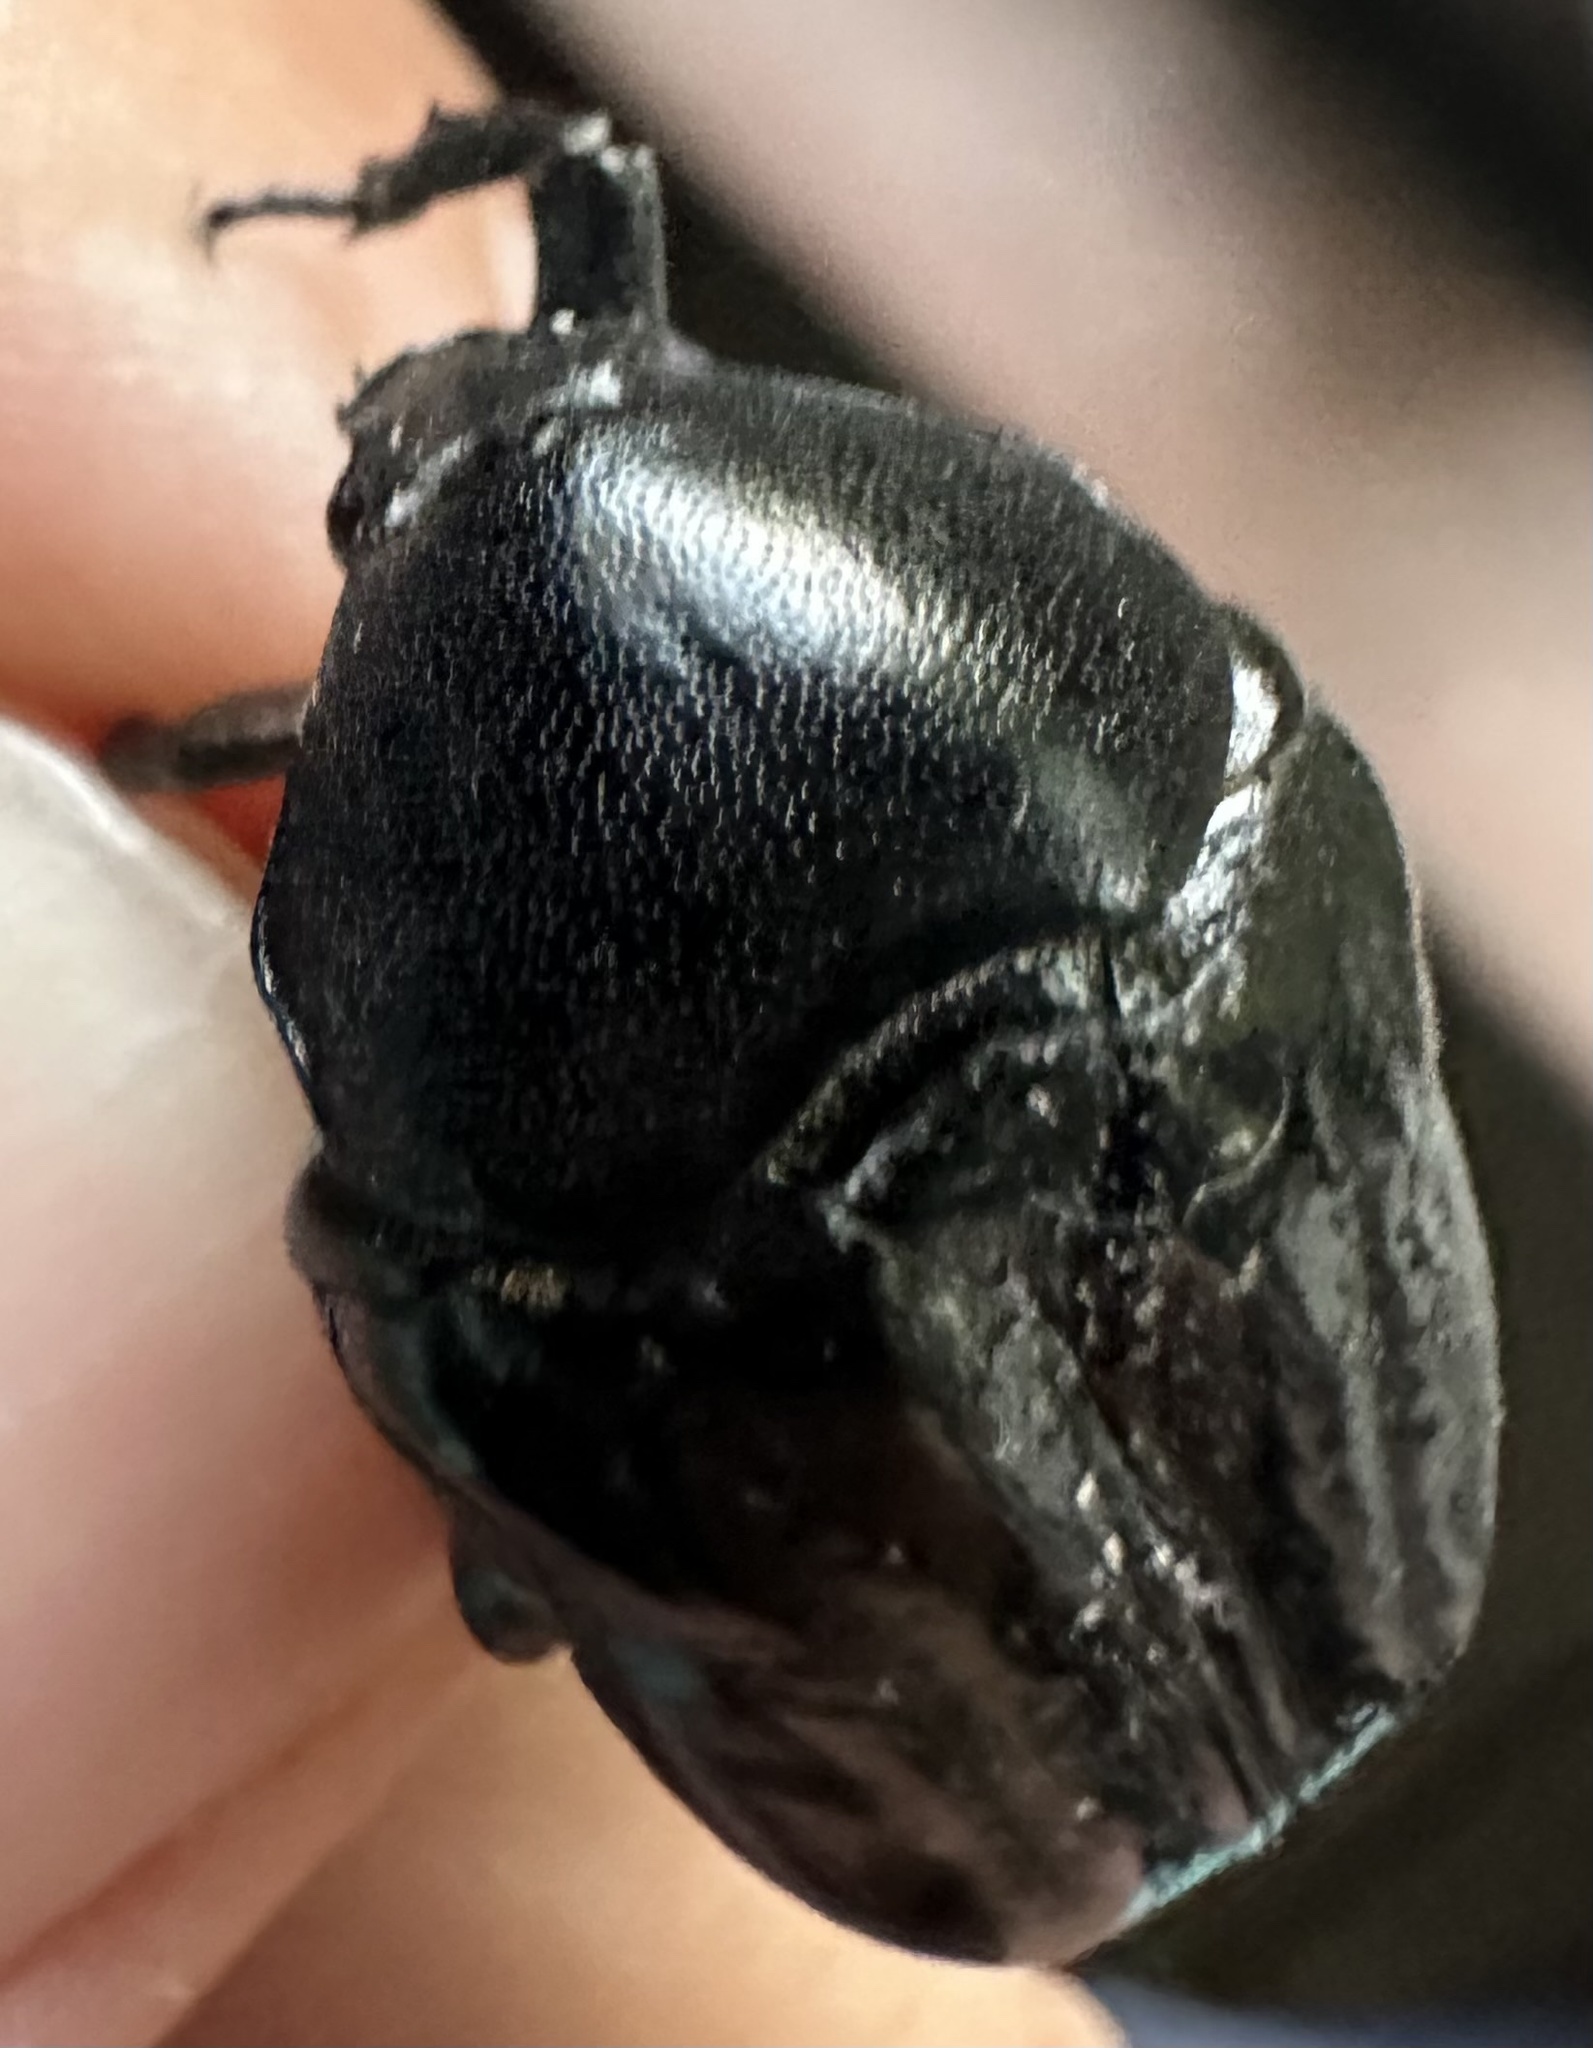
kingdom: Animalia
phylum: Arthropoda
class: Insecta
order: Coleoptera
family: Scarabaeidae
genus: Oplostomus
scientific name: Oplostomus fuligineus
